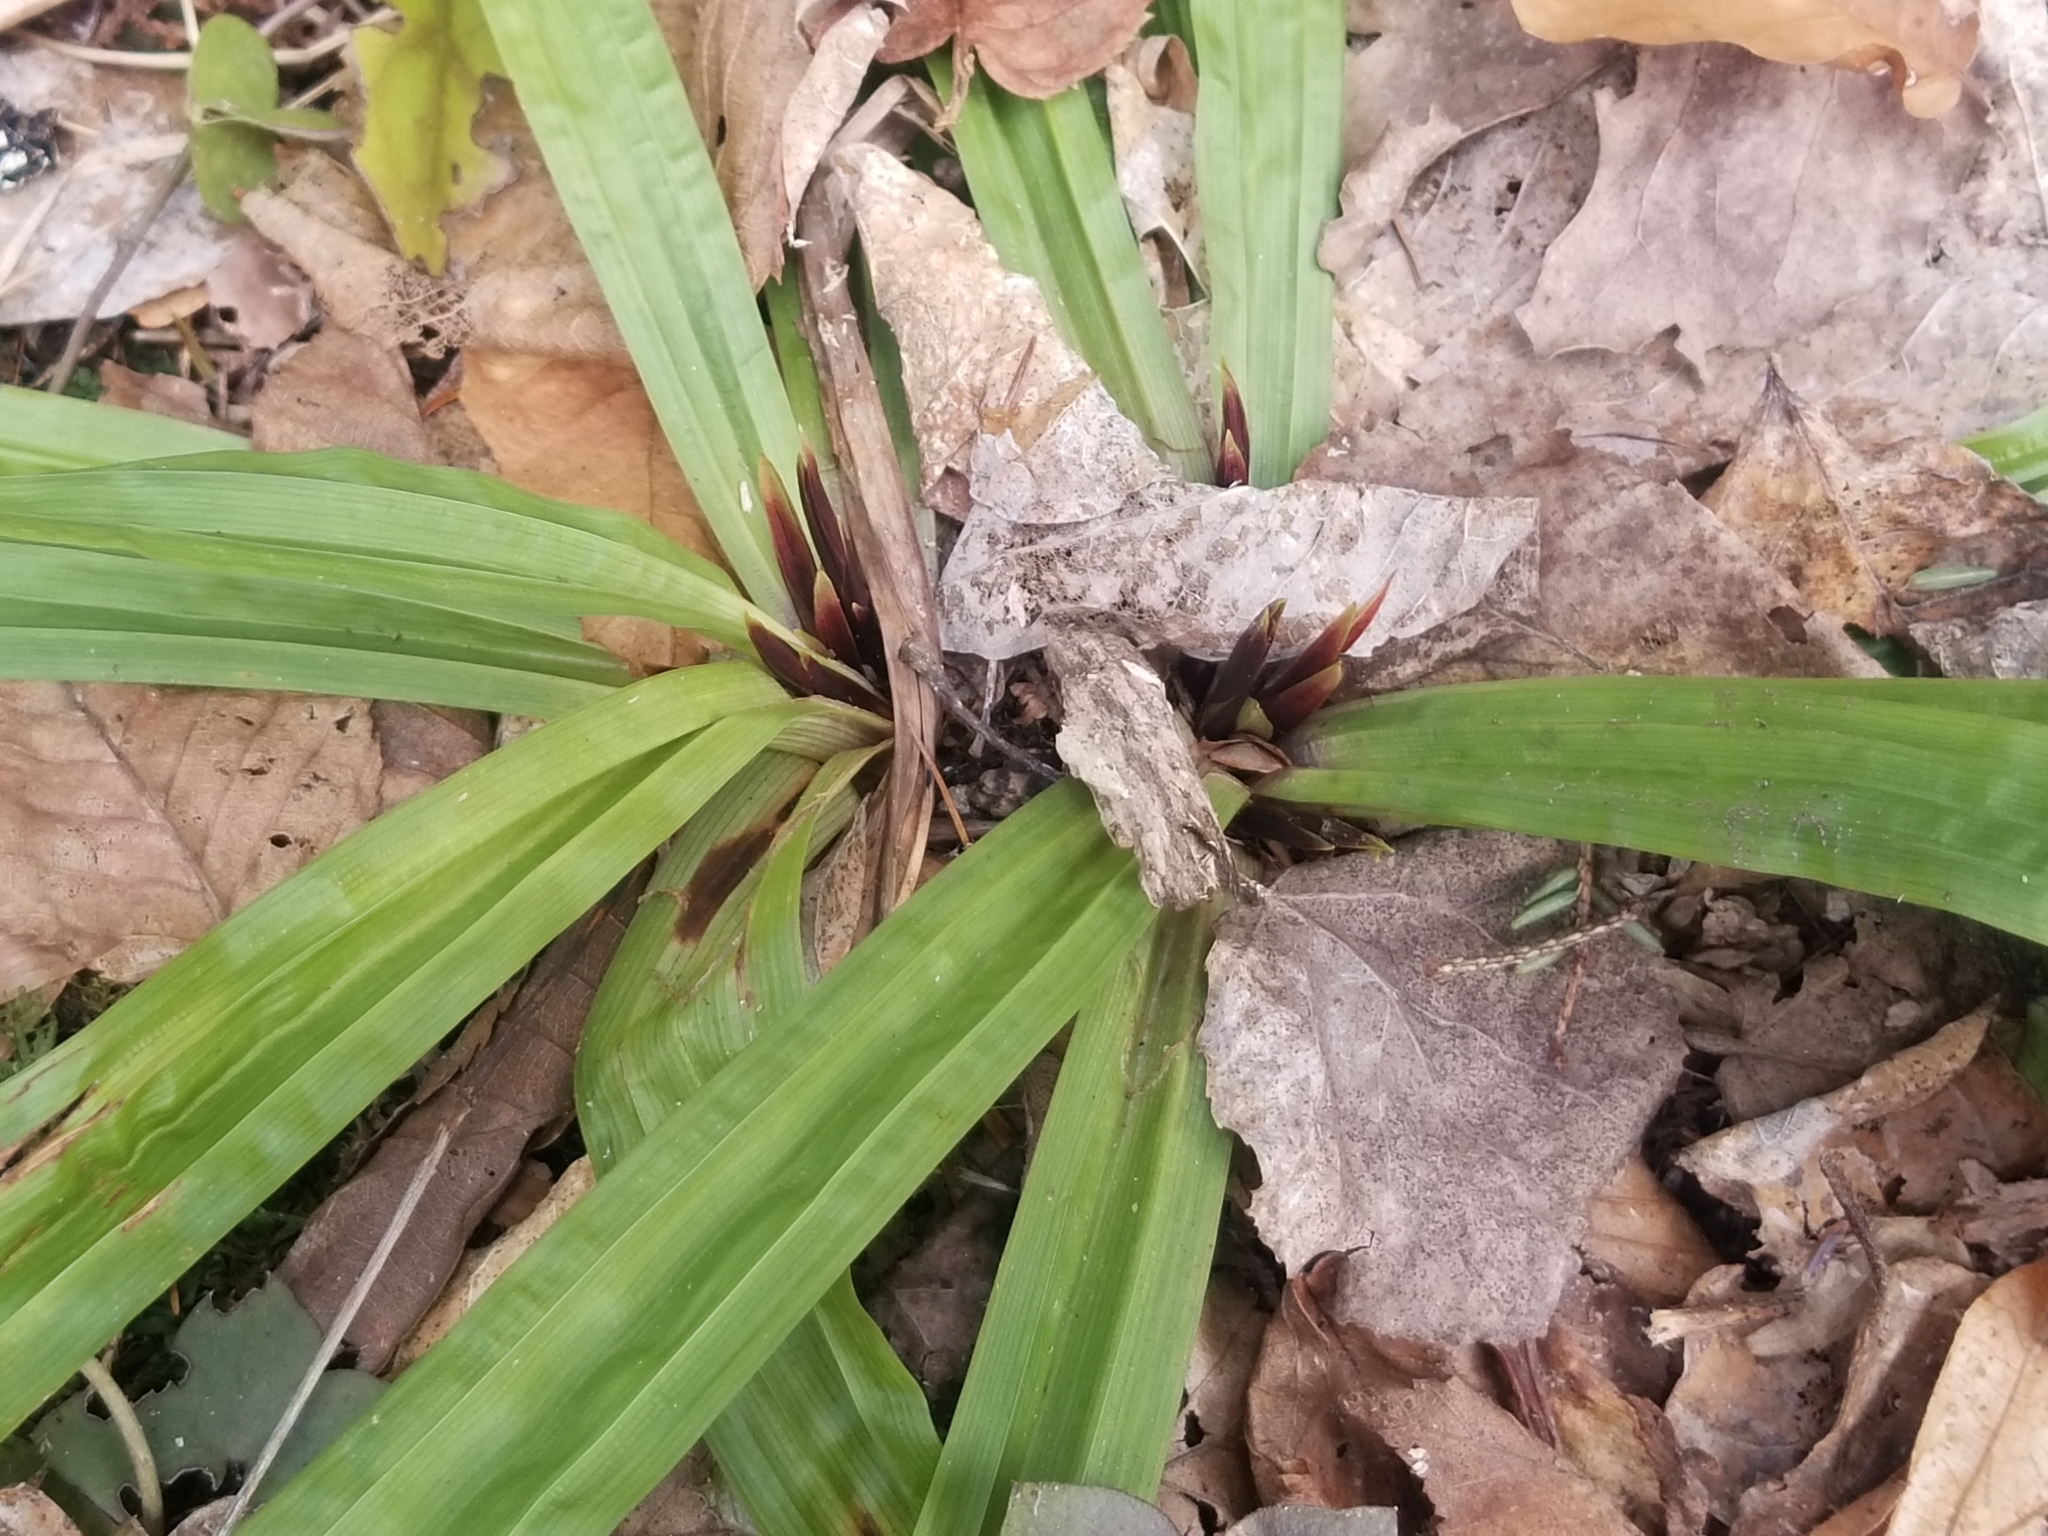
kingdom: Plantae
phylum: Tracheophyta
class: Liliopsida
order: Poales
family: Cyperaceae
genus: Carex
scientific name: Carex plantaginea
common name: Plantain-leaved sedge
